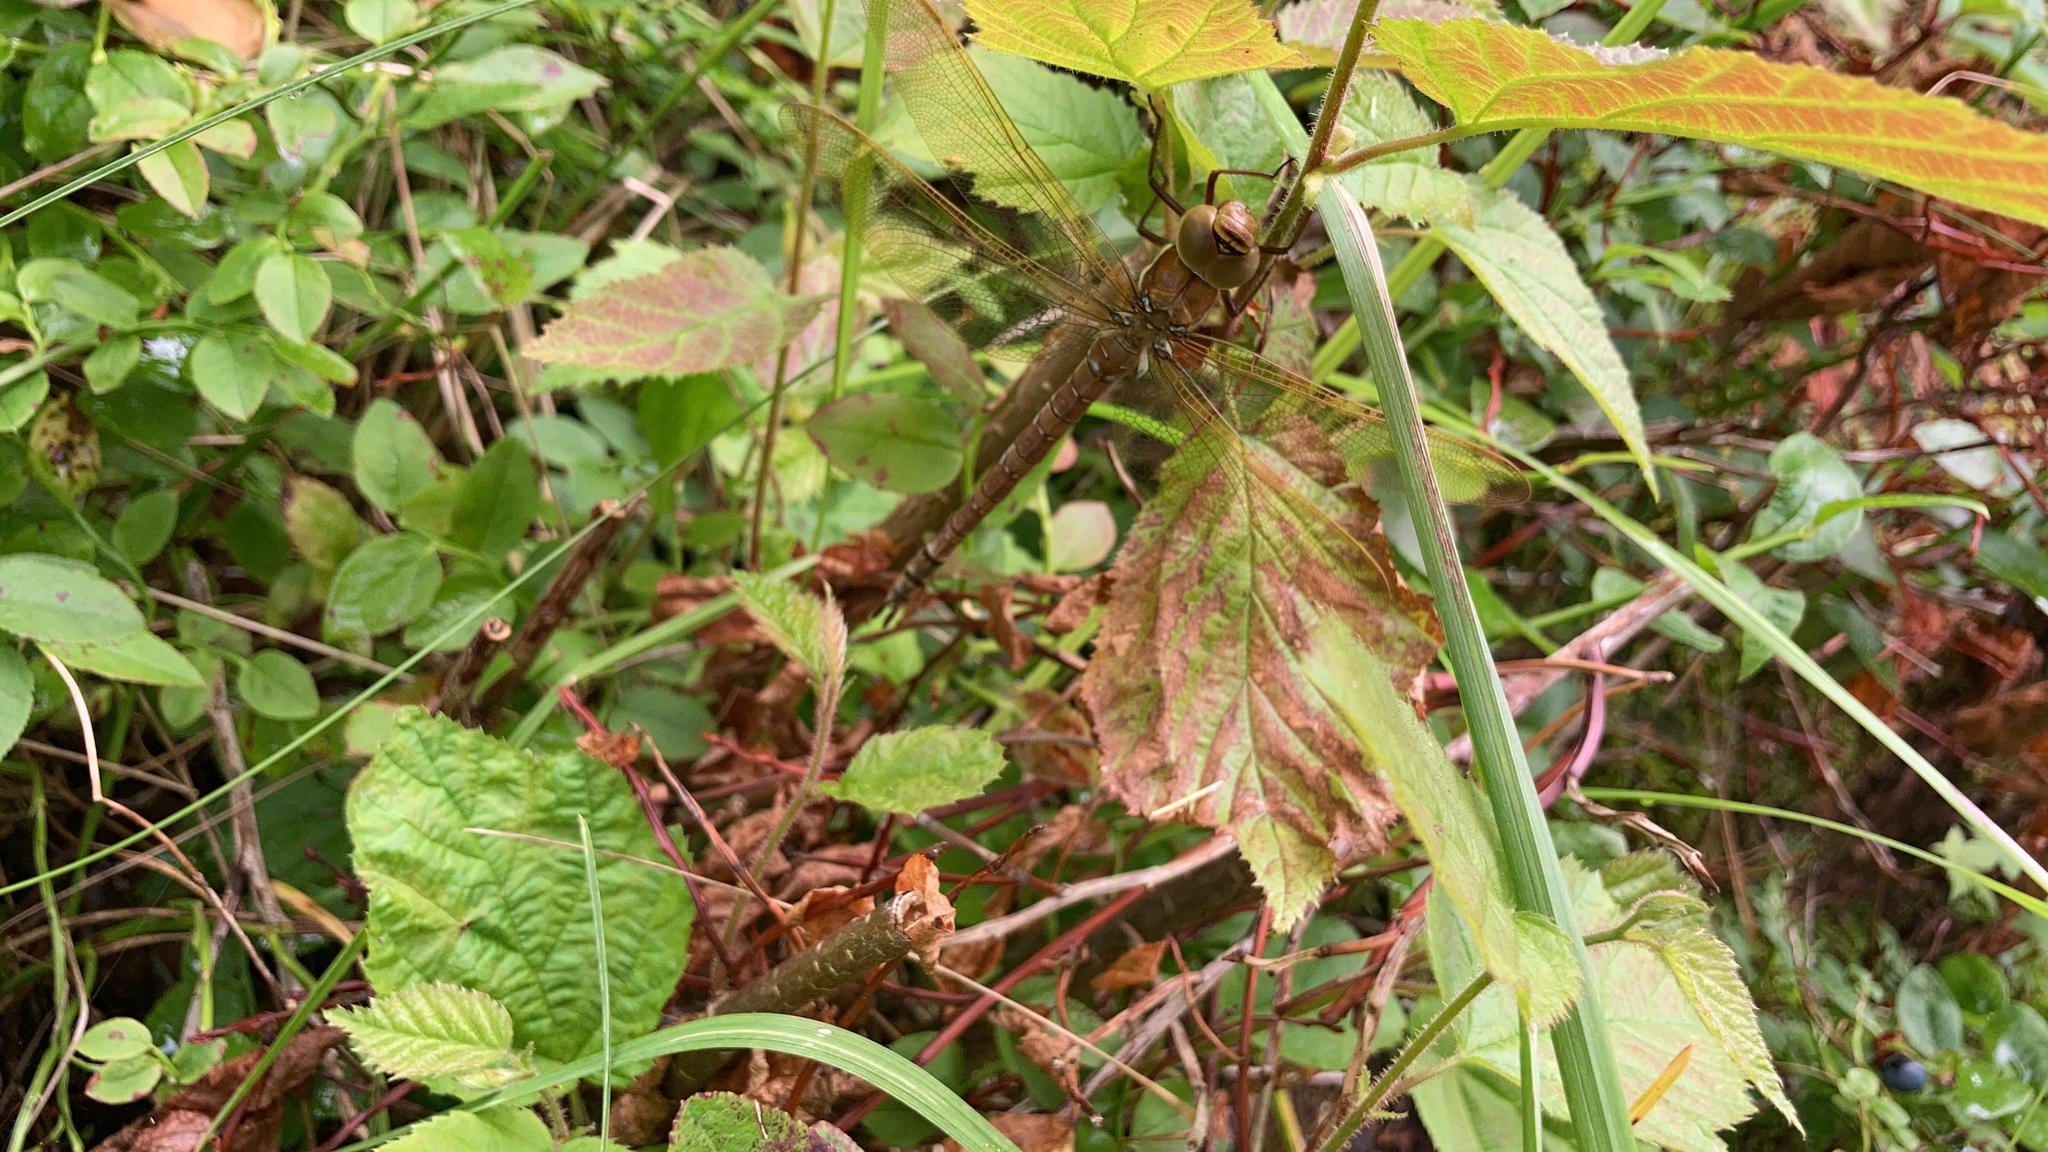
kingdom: Animalia
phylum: Arthropoda
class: Insecta
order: Odonata
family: Aeshnidae
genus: Aeshna
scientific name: Aeshna grandis
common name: Brown hawker
